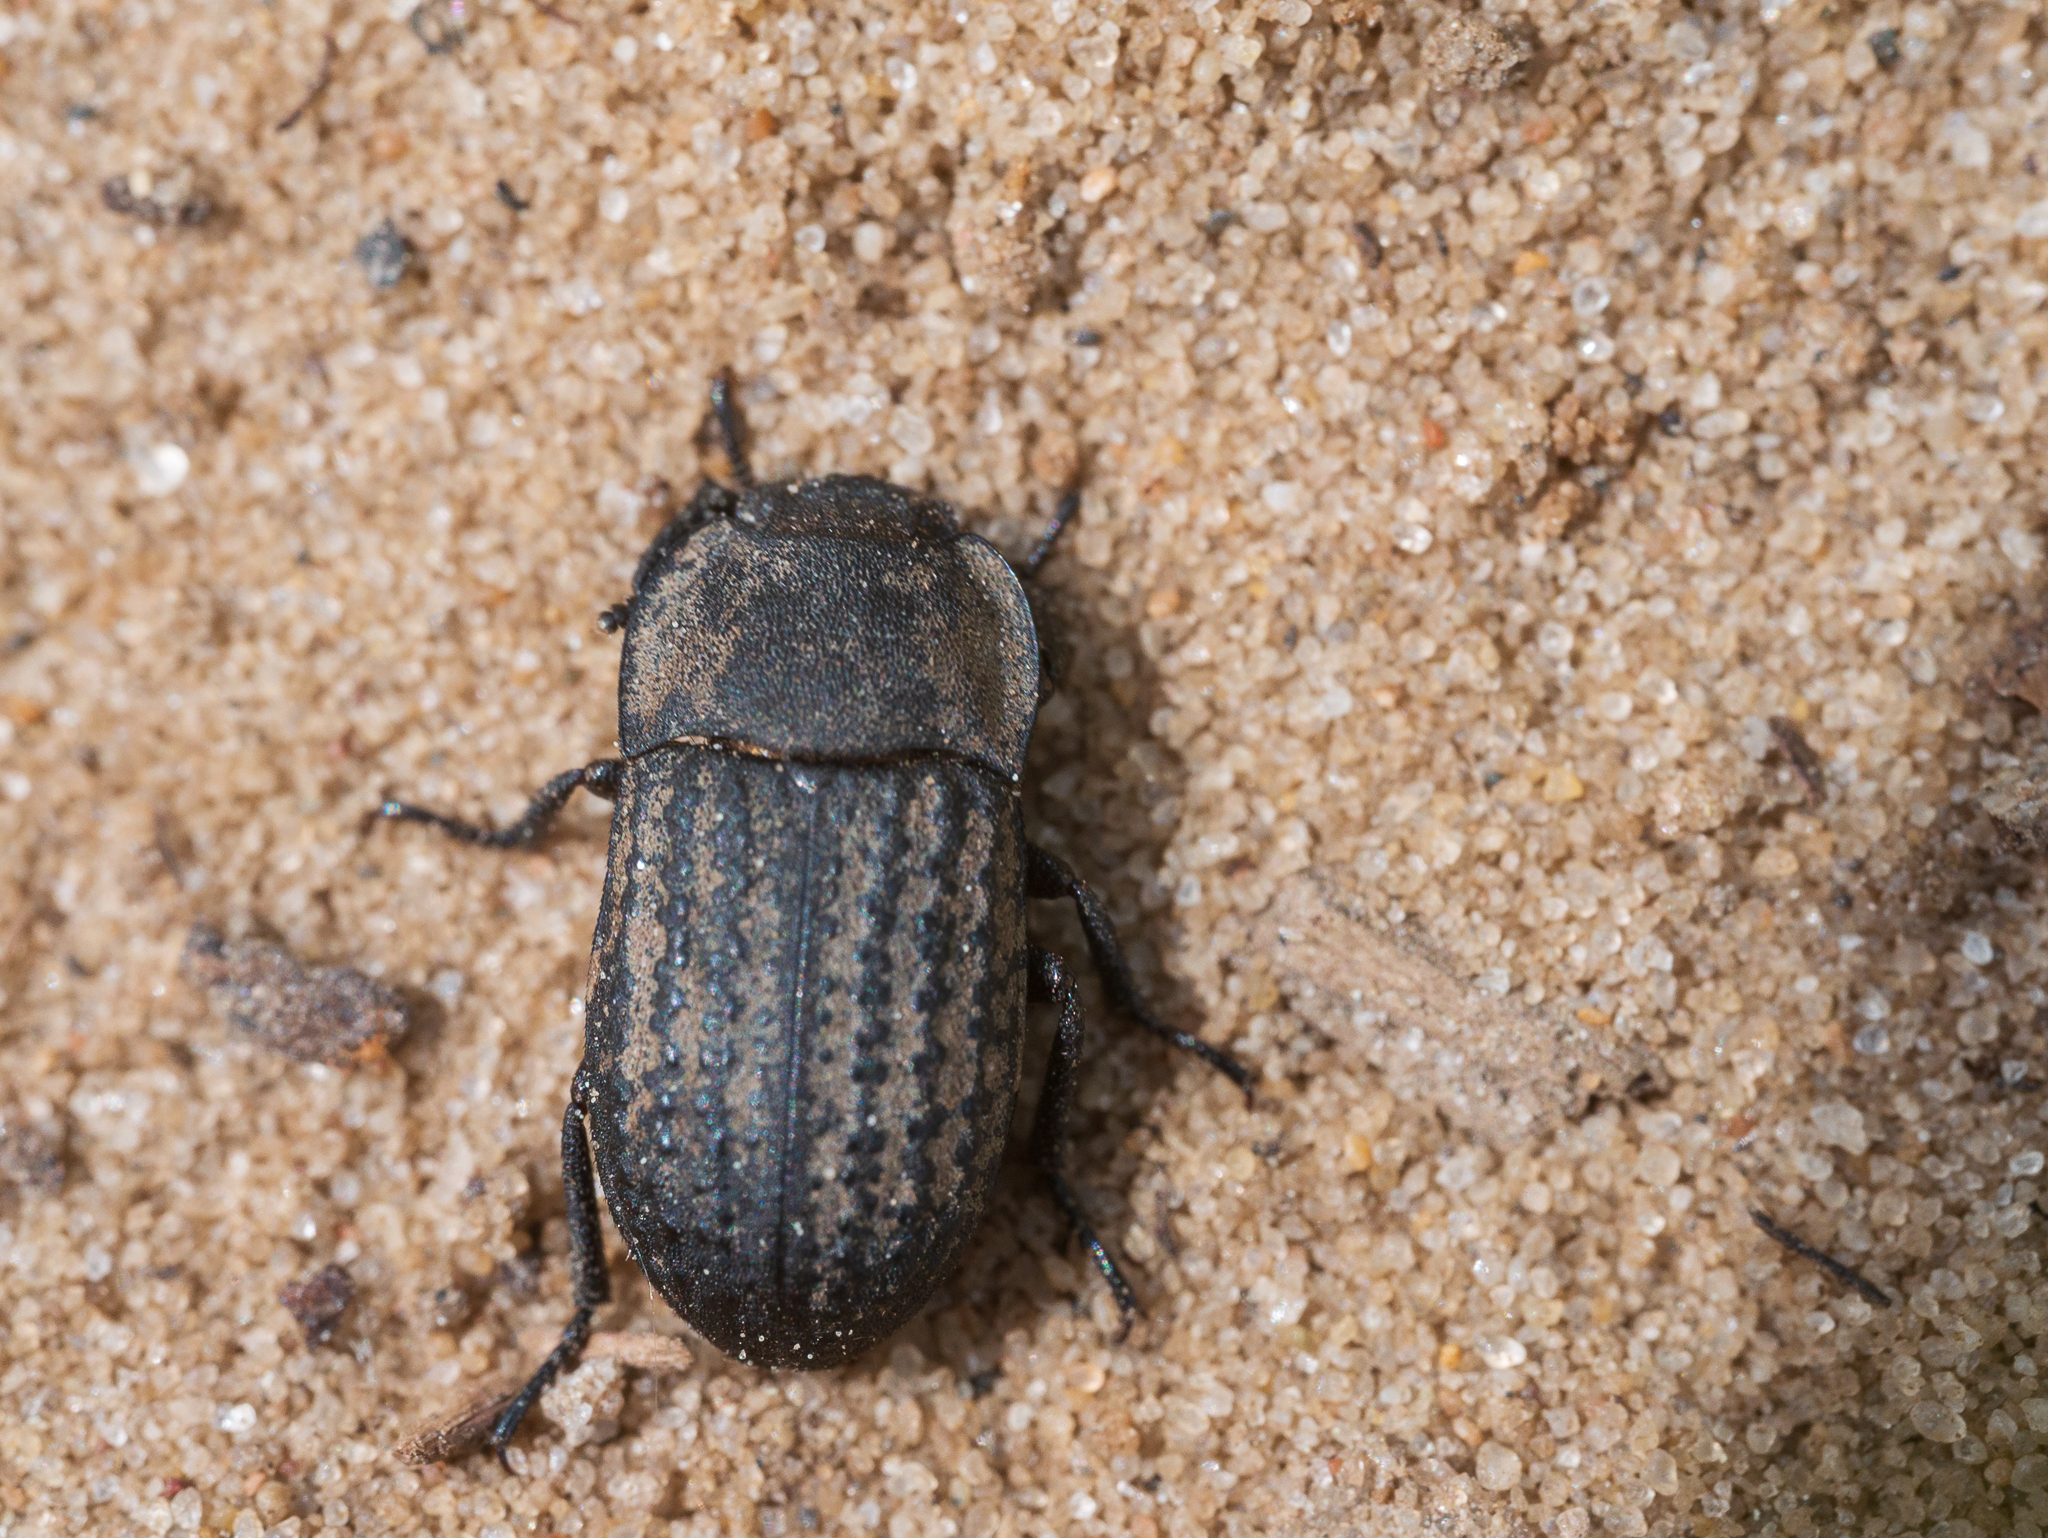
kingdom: Animalia
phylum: Arthropoda
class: Insecta
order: Coleoptera
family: Tenebrionidae
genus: Opatrum
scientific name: Opatrum sabulosum
